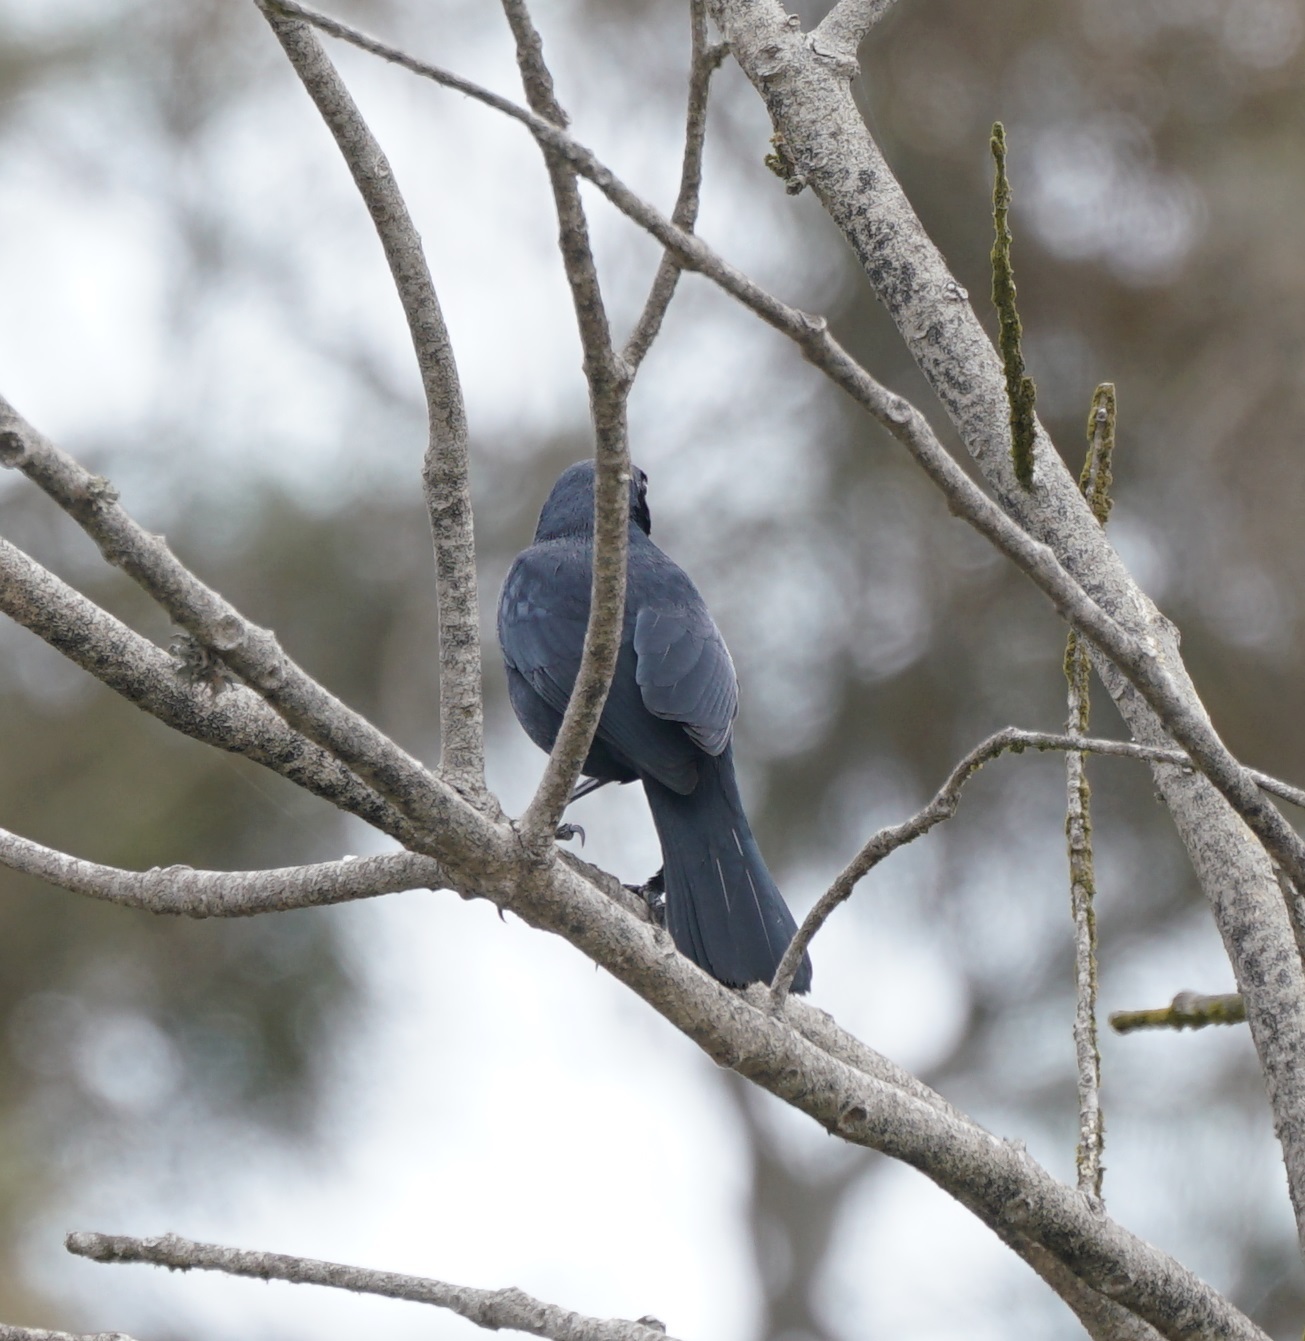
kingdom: Animalia
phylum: Chordata
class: Aves
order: Passeriformes
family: Icteridae
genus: Dives
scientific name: Dives warczewiczi
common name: Scrub blackbird
